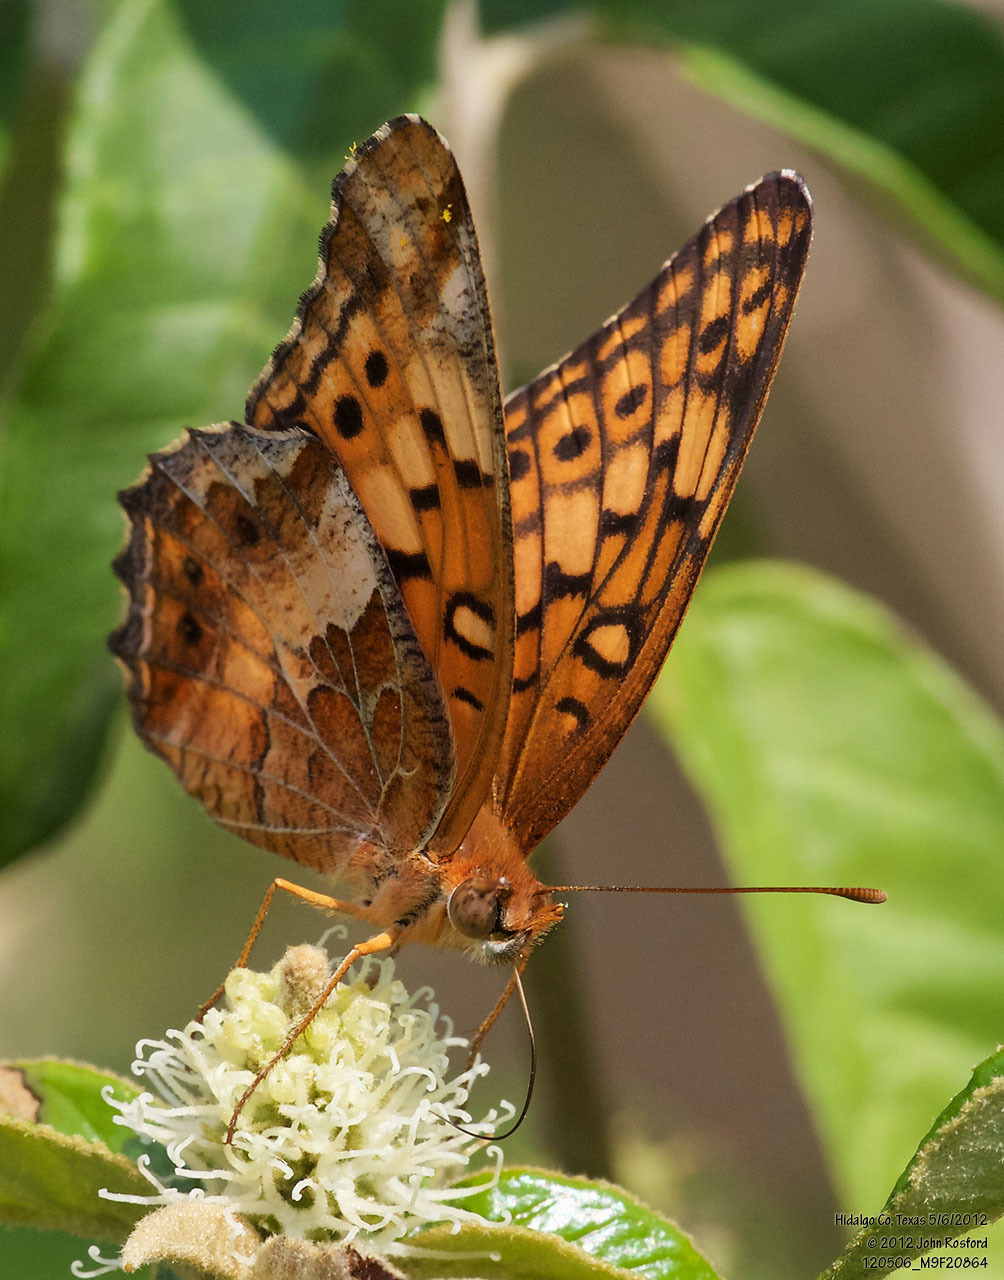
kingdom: Animalia
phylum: Arthropoda
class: Insecta
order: Lepidoptera
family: Nymphalidae
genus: Euptoieta
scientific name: Euptoieta claudia
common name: Variegated fritillary
